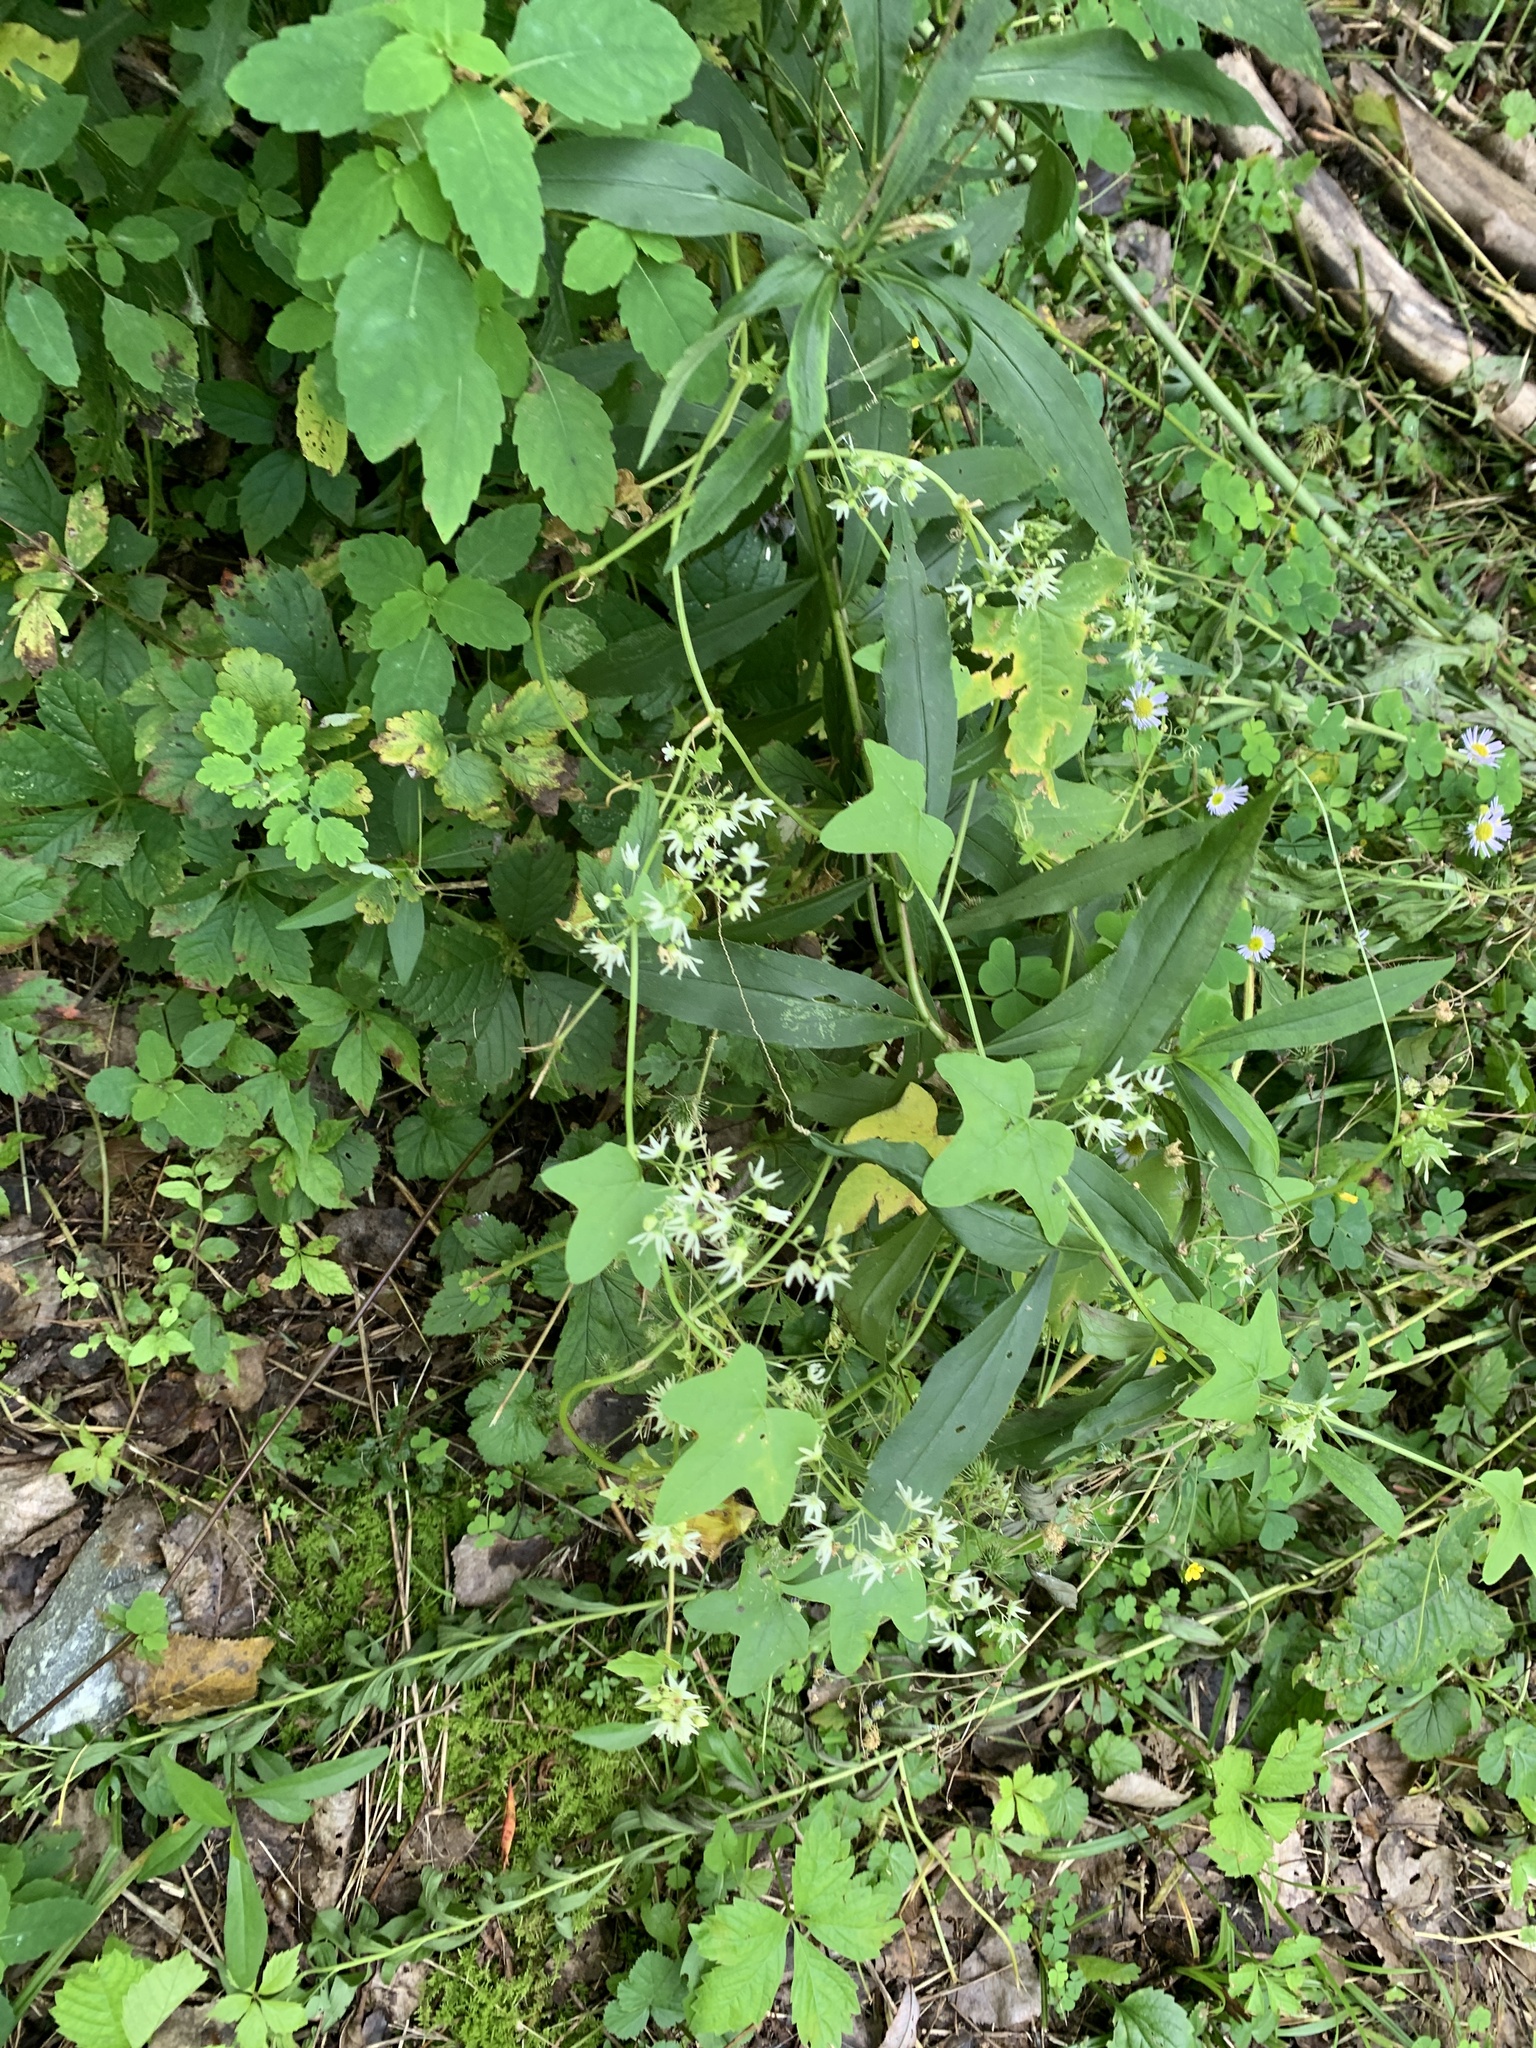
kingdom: Plantae
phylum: Tracheophyta
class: Magnoliopsida
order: Cucurbitales
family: Cucurbitaceae
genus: Echinocystis
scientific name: Echinocystis lobata
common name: Wild cucumber
